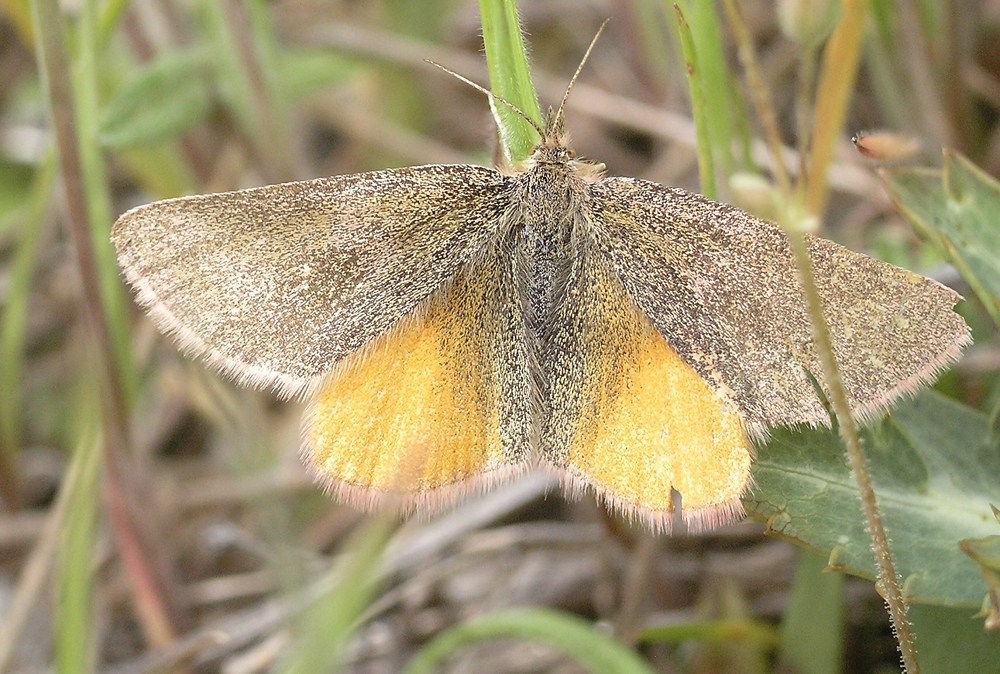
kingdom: Animalia
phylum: Arthropoda
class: Insecta
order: Lepidoptera
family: Geometridae
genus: Lythria
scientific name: Lythria purpuraria
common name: Purple-barred yellow
